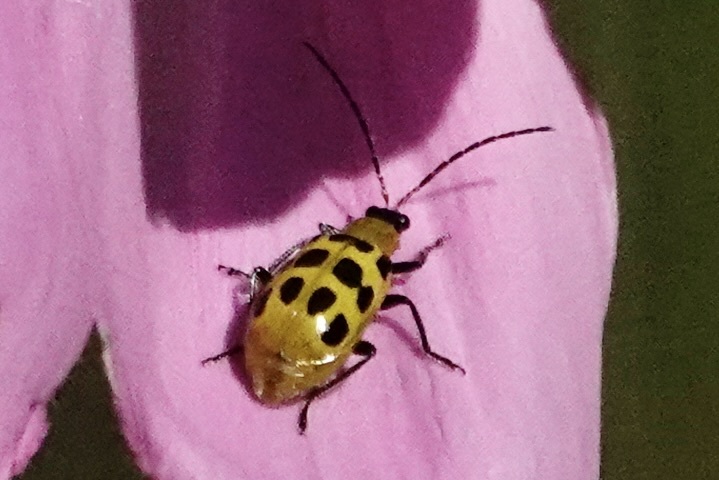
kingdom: Animalia
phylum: Arthropoda
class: Insecta
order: Coleoptera
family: Chrysomelidae
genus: Diabrotica
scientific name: Diabrotica undecimpunctata
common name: Spotted cucumber beetle
